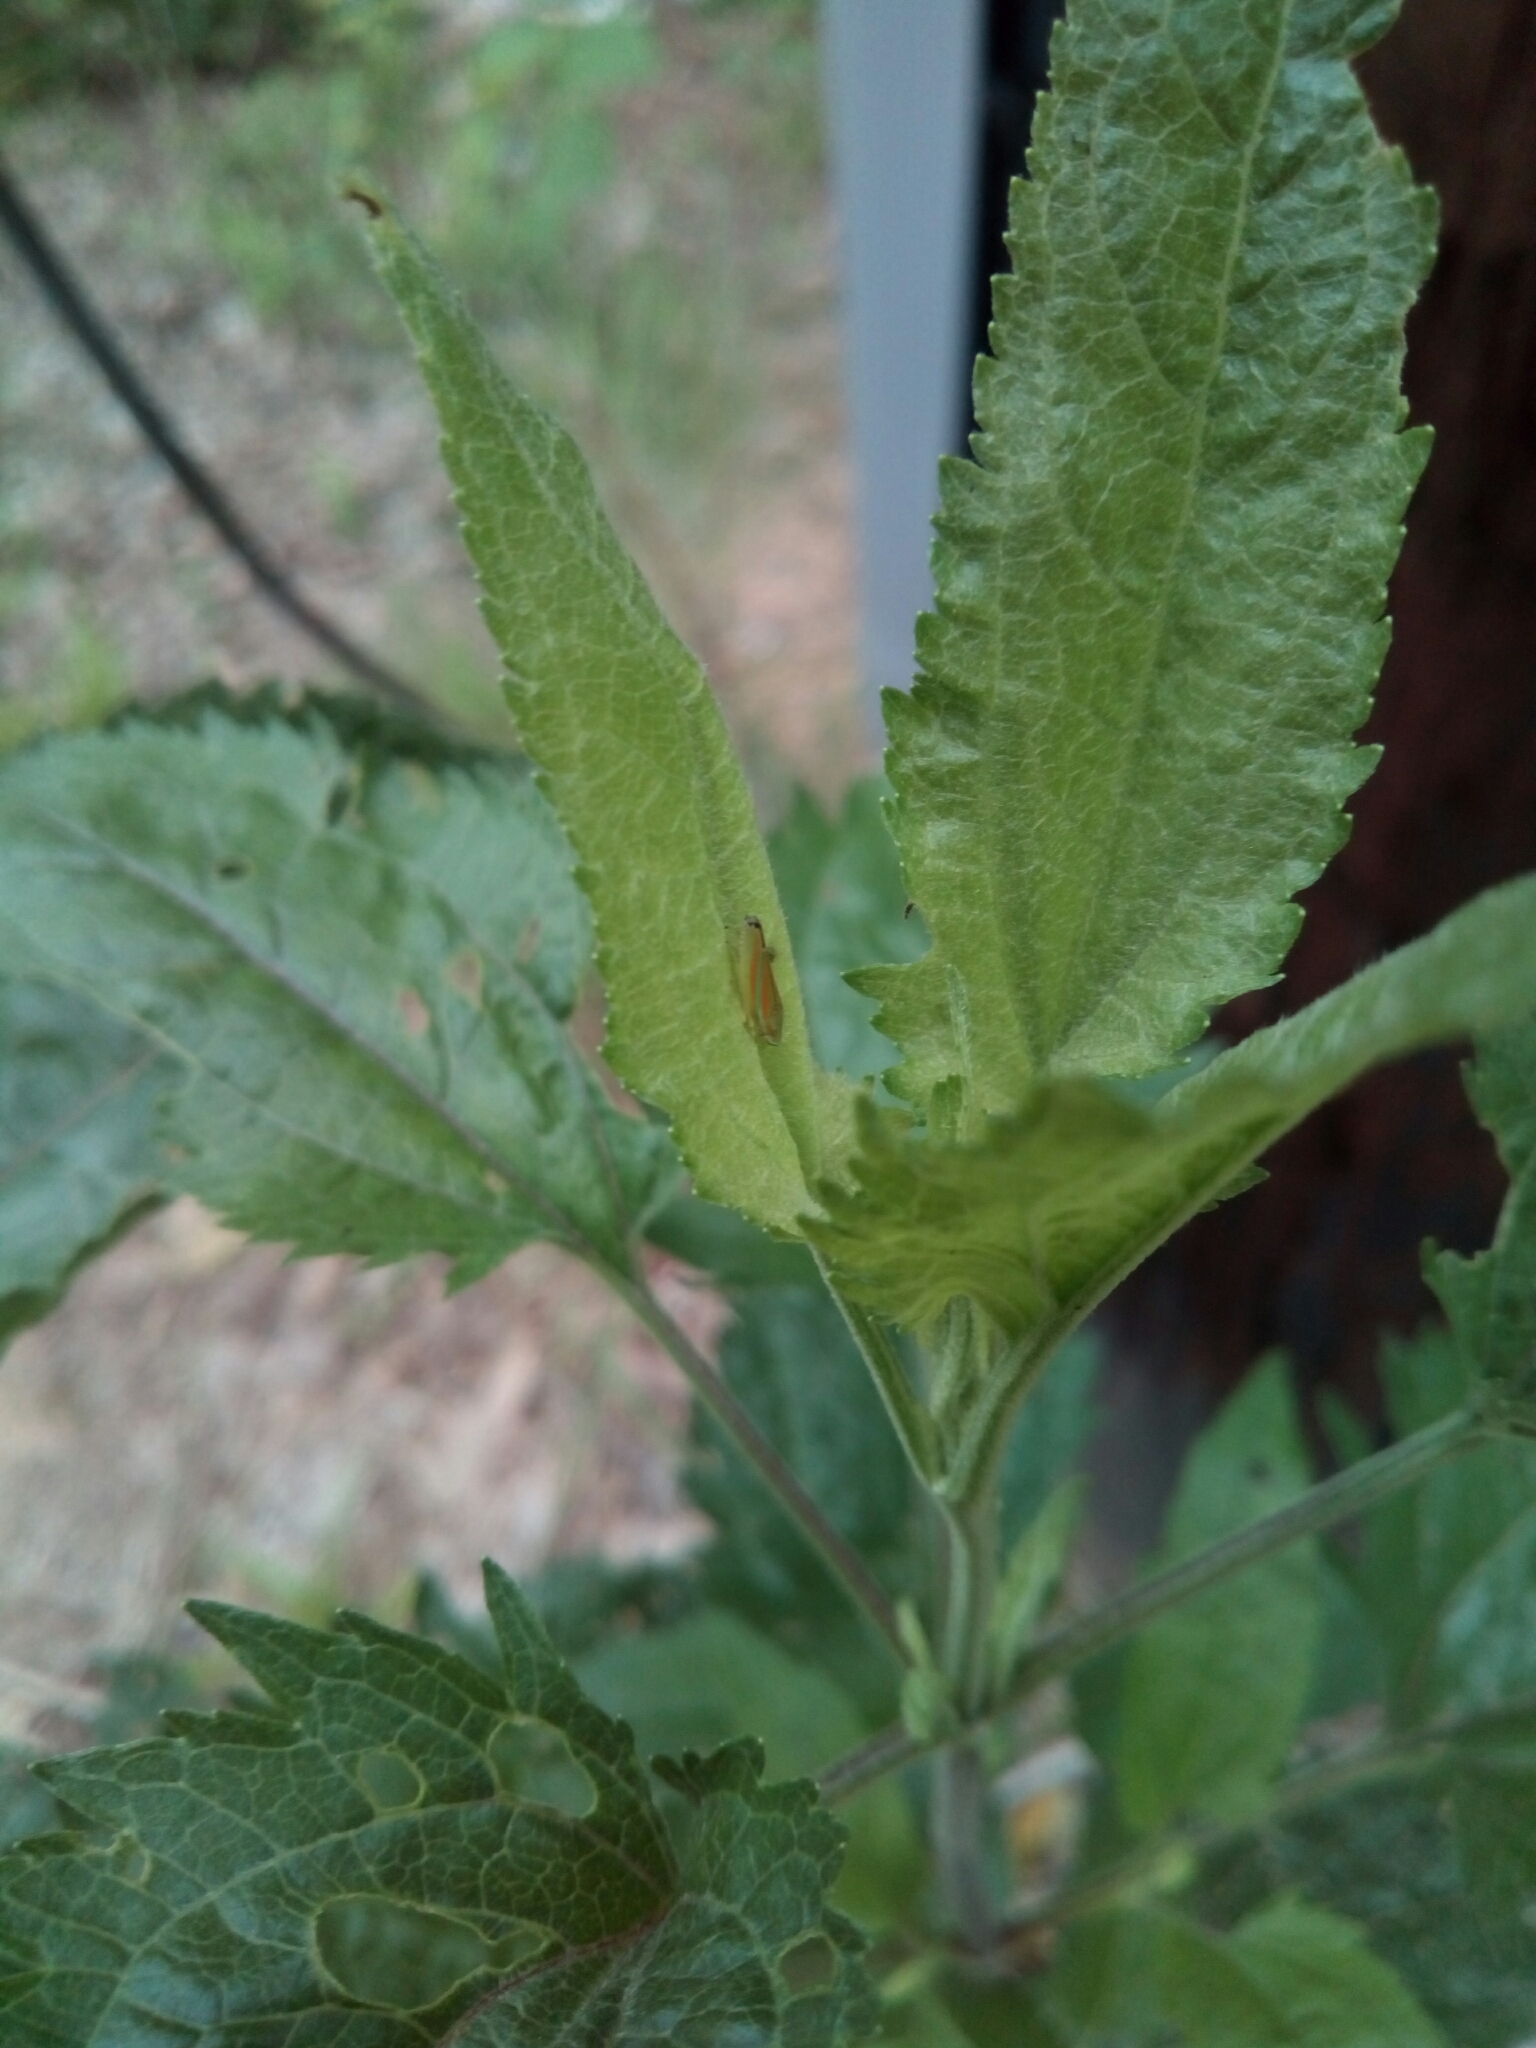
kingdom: Animalia
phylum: Arthropoda
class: Insecta
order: Hemiptera
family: Cicadellidae
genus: Graphocephala
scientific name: Graphocephala versuta
